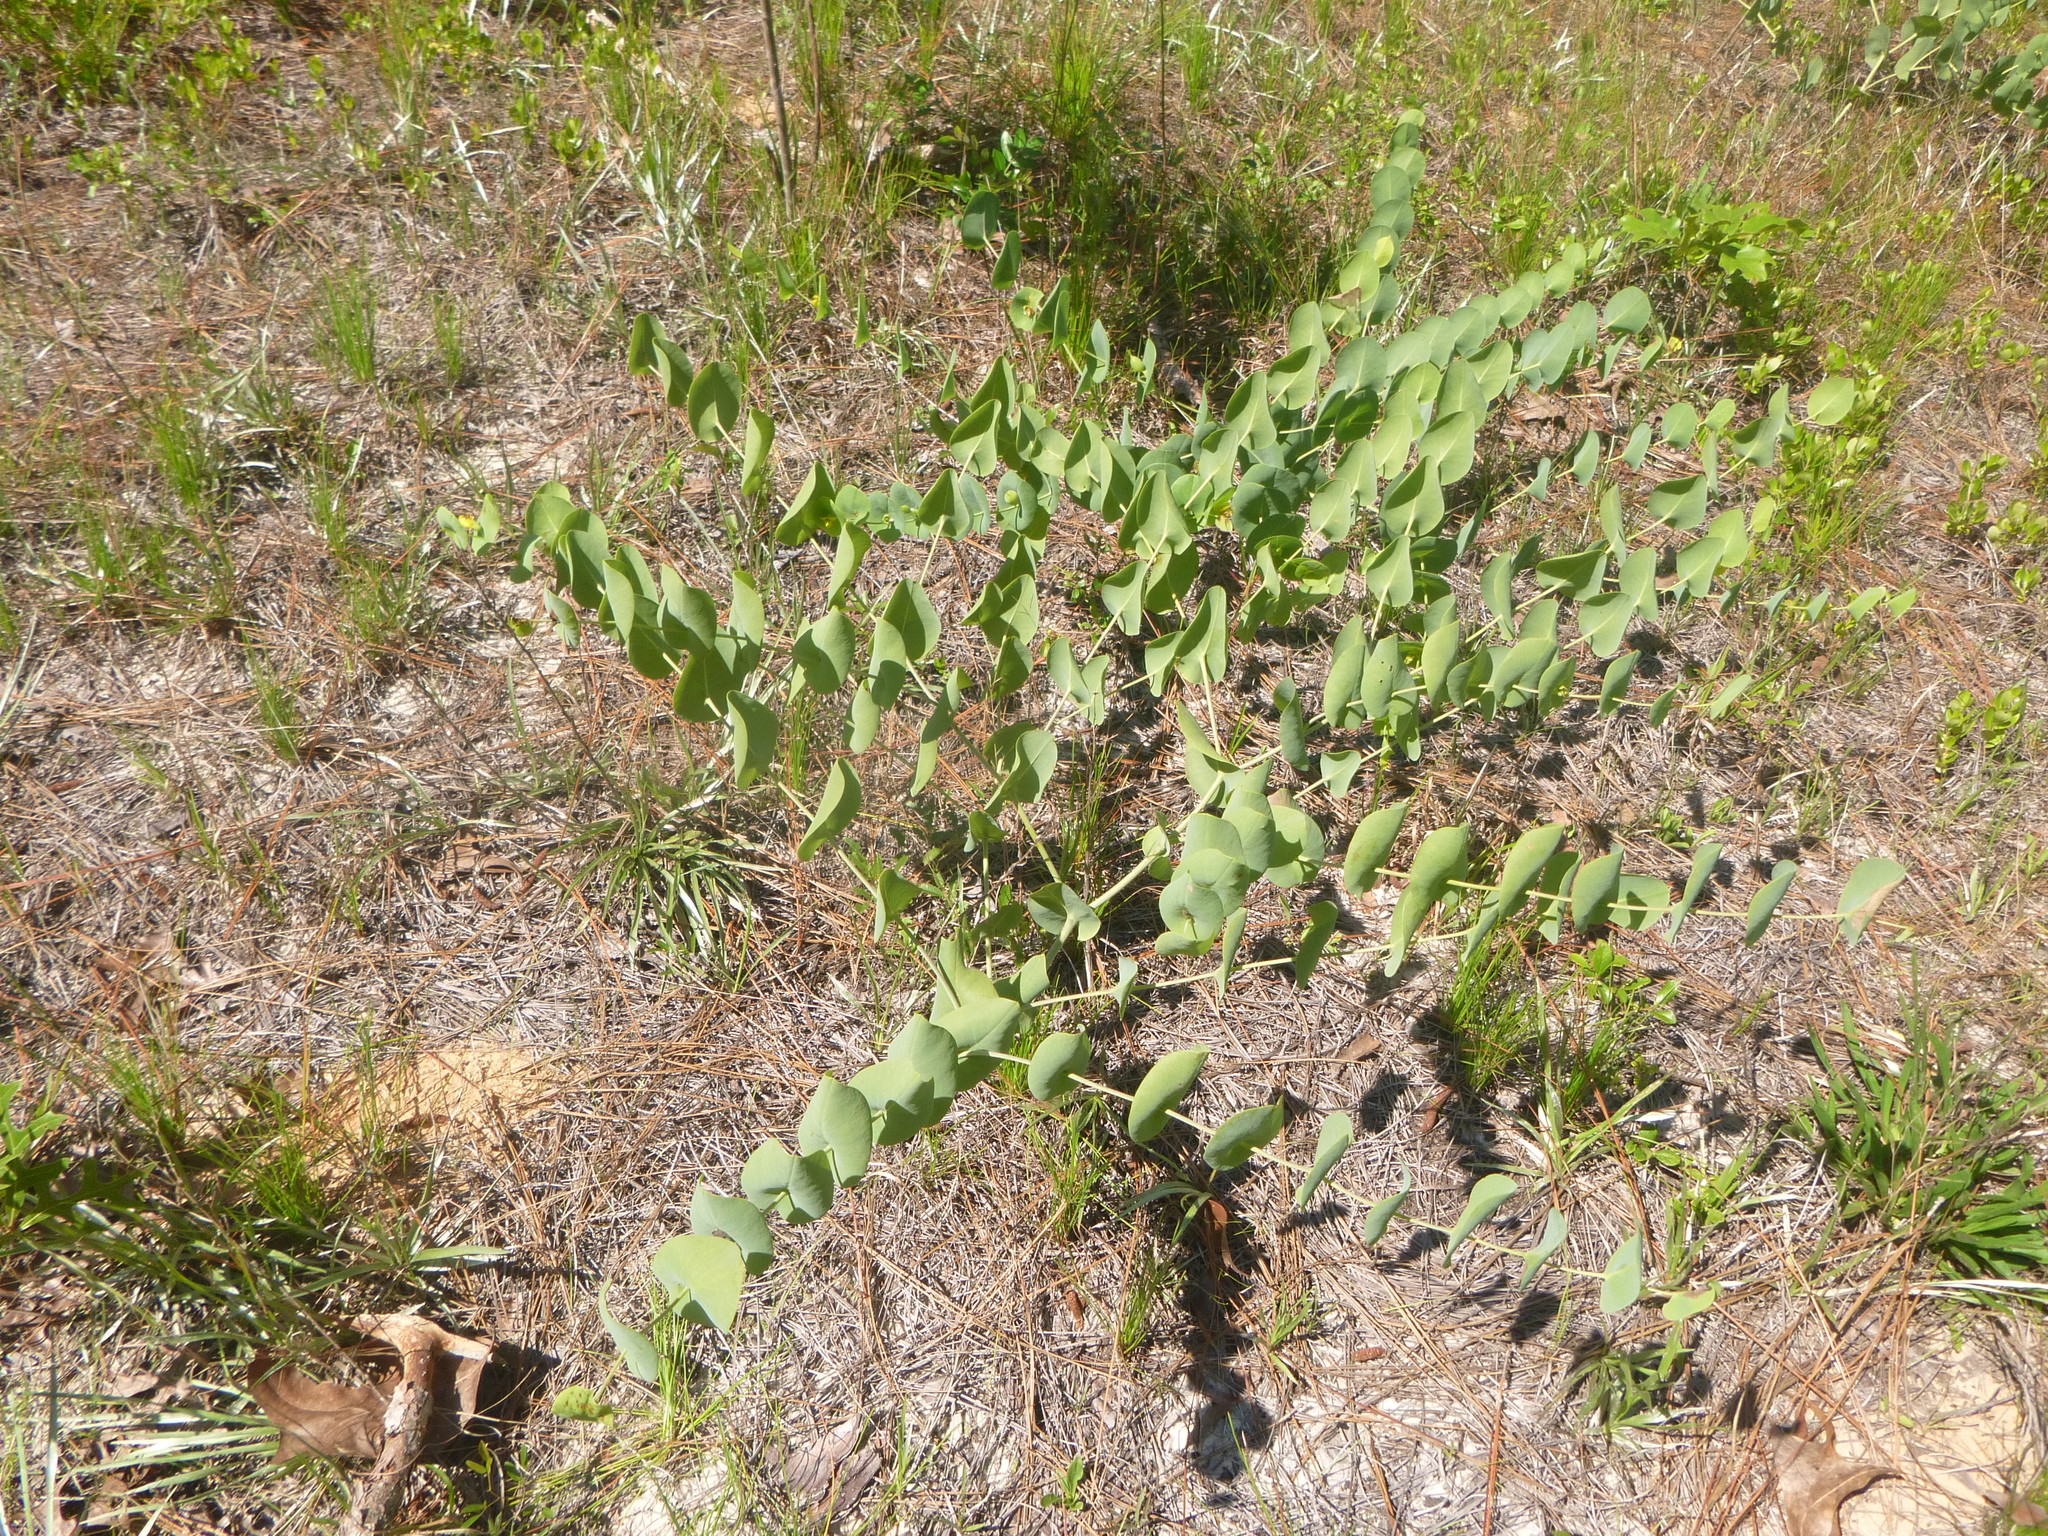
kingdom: Plantae
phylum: Tracheophyta
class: Magnoliopsida
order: Fabales
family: Fabaceae
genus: Baptisia
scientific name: Baptisia perfoliata
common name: Catbells
